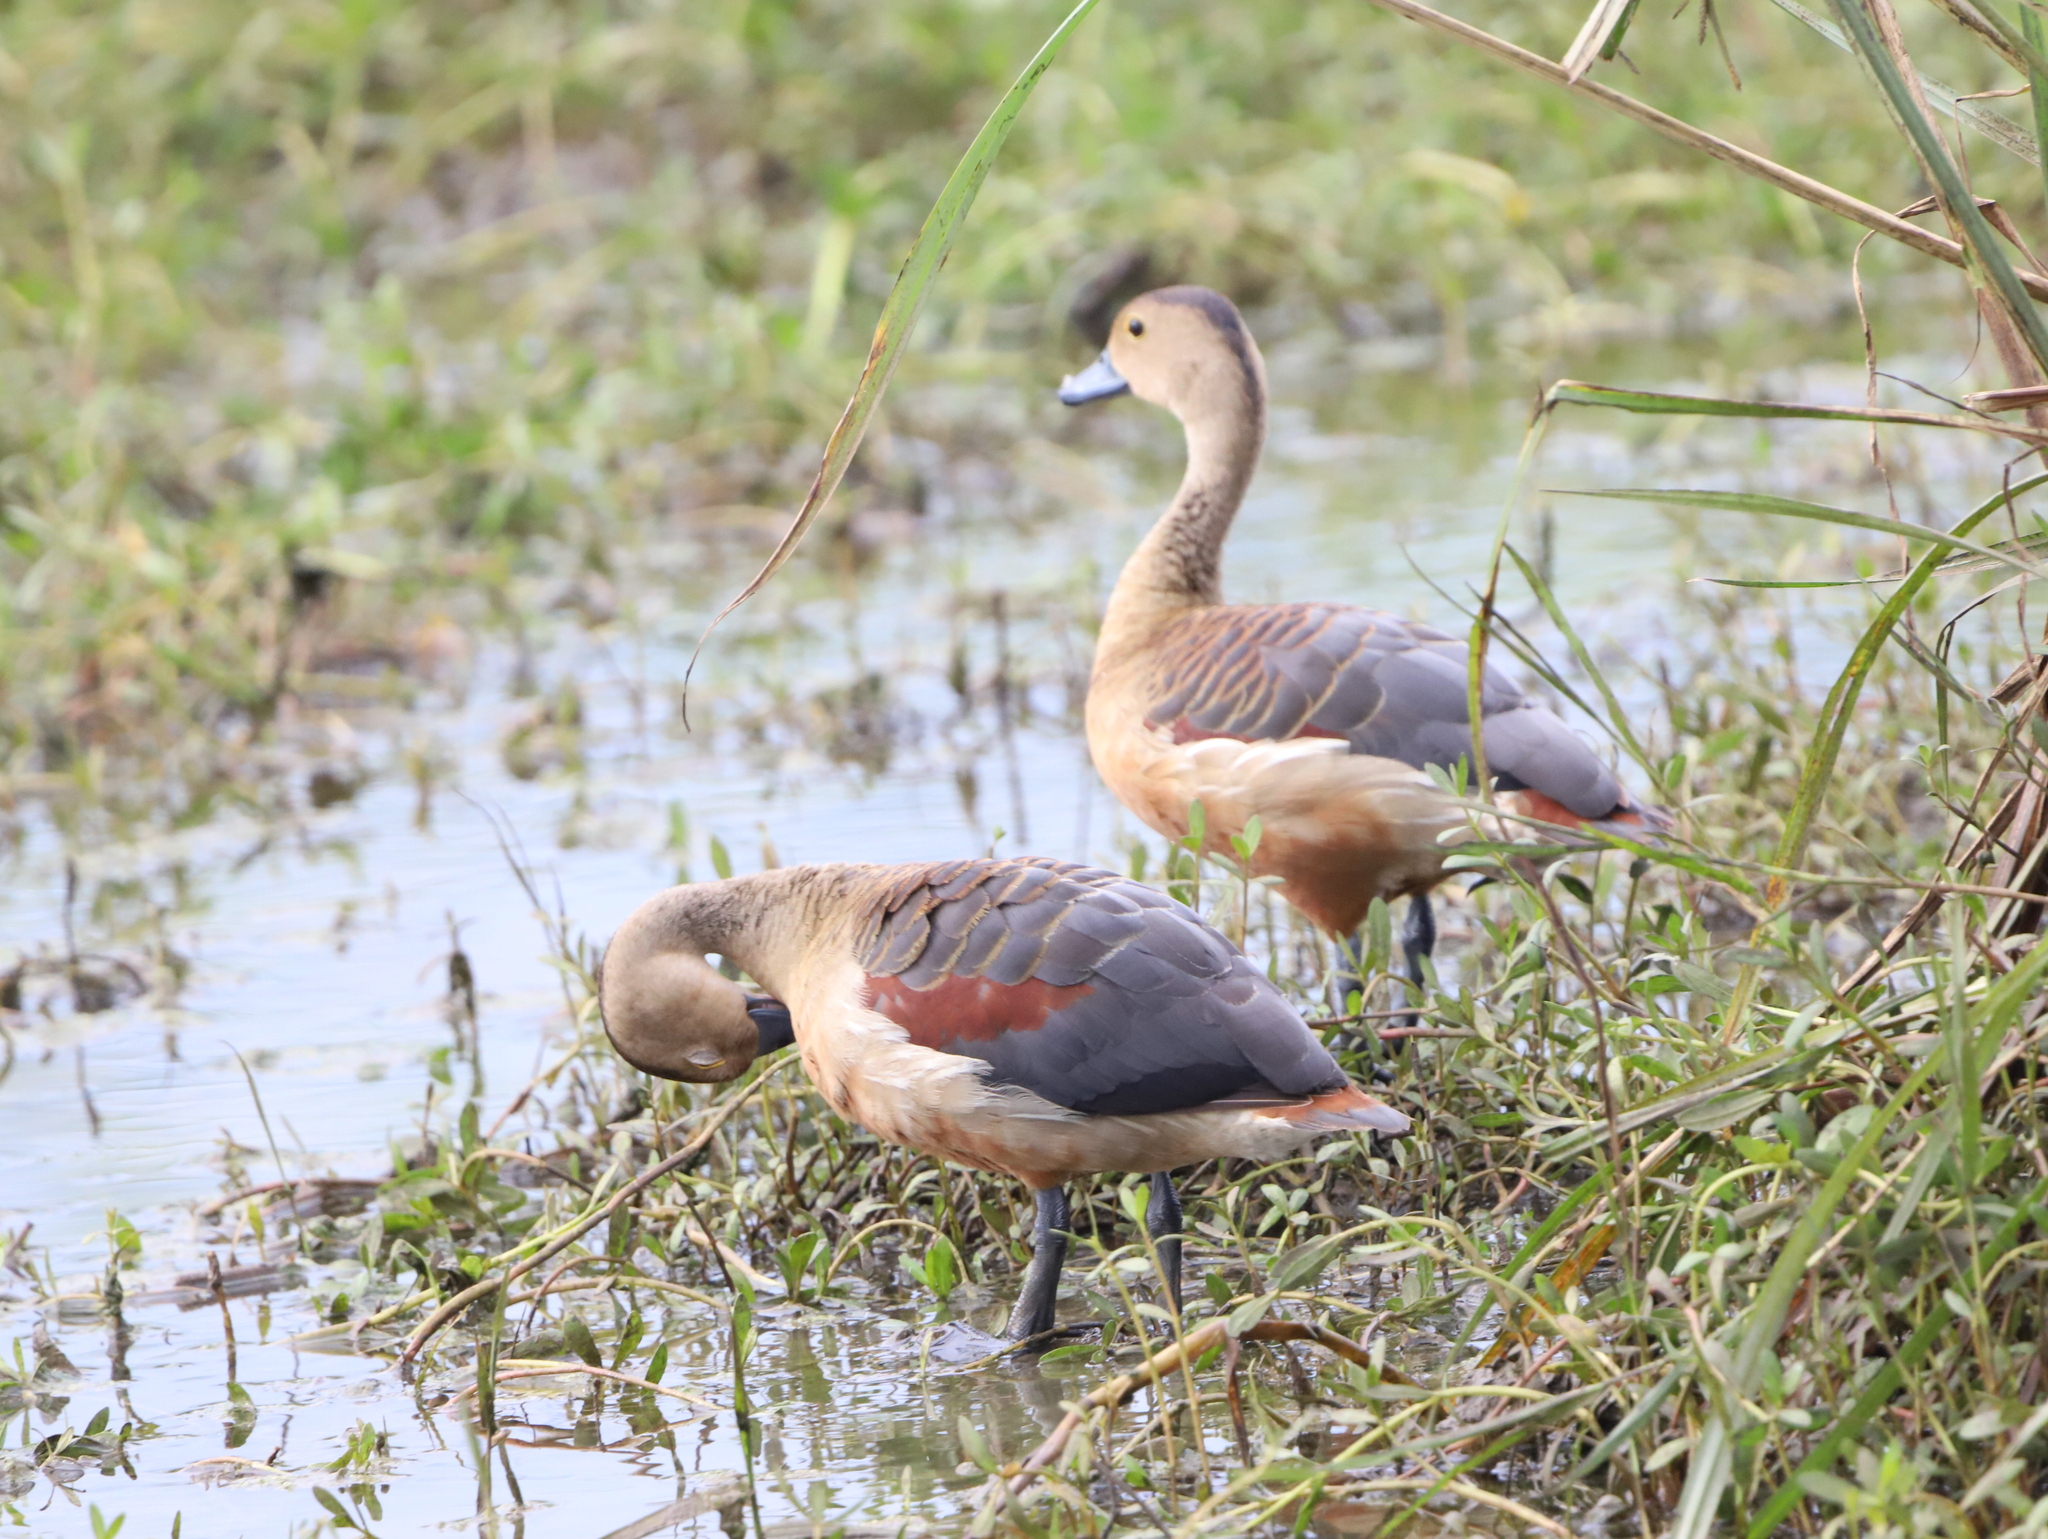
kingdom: Animalia
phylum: Chordata
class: Aves
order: Anseriformes
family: Anatidae
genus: Dendrocygna
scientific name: Dendrocygna javanica
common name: Lesser whistling-duck
